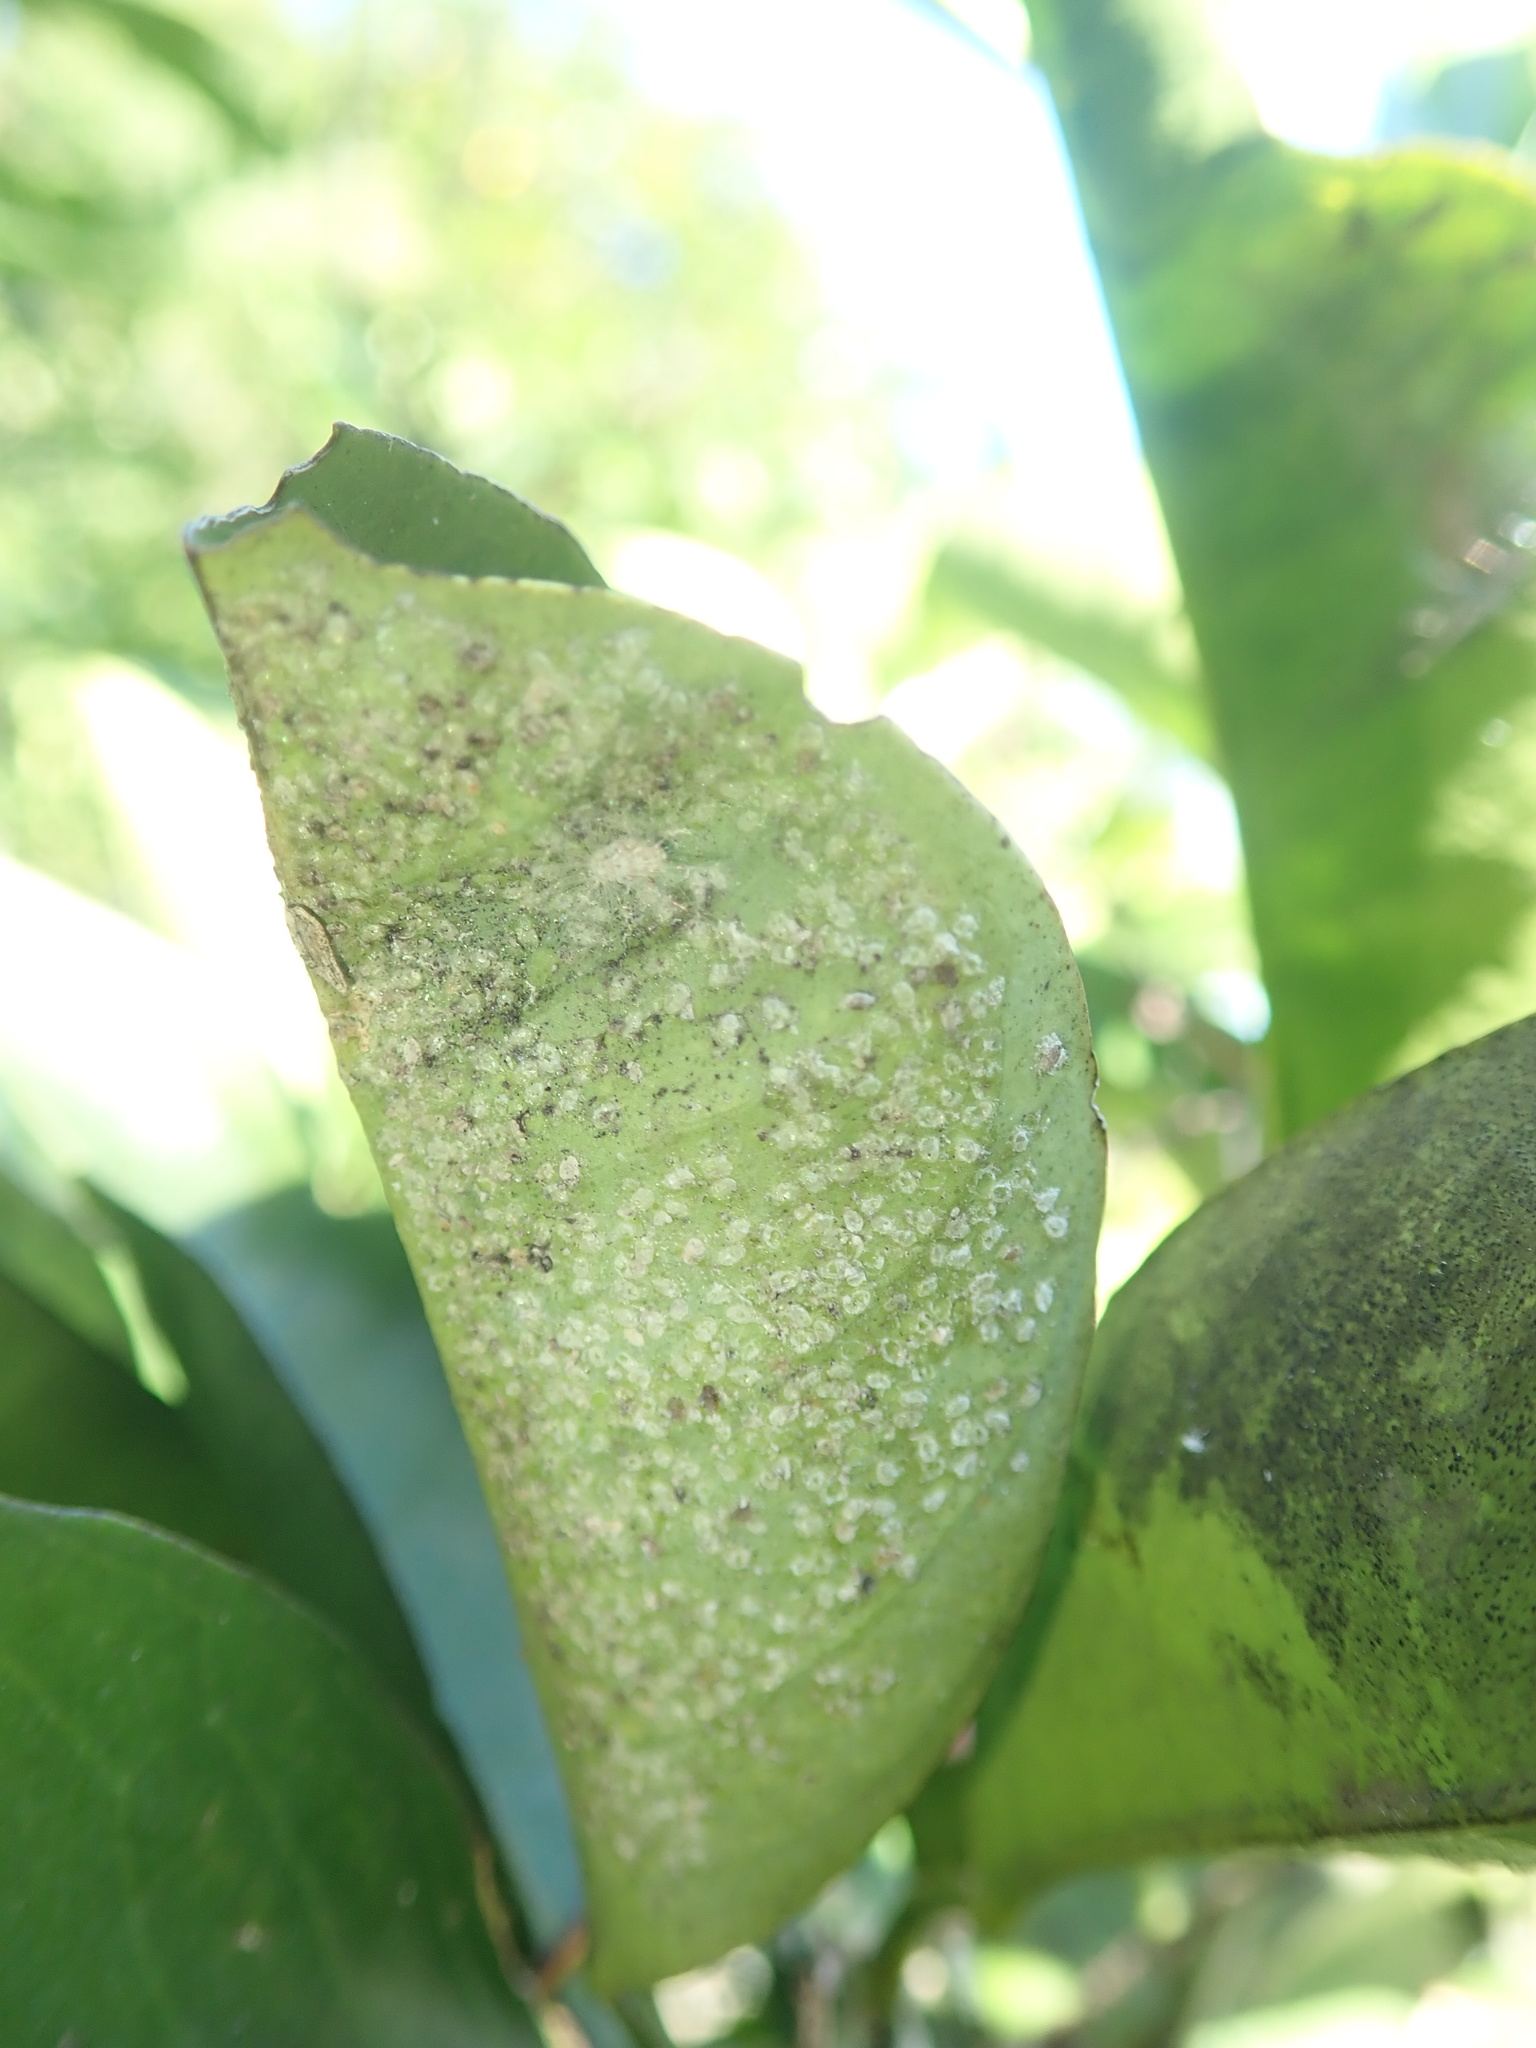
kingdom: Animalia
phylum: Arthropoda
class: Insecta
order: Hemiptera
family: Aleyrodidae
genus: Orchamoplatus
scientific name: Orchamoplatus citri
